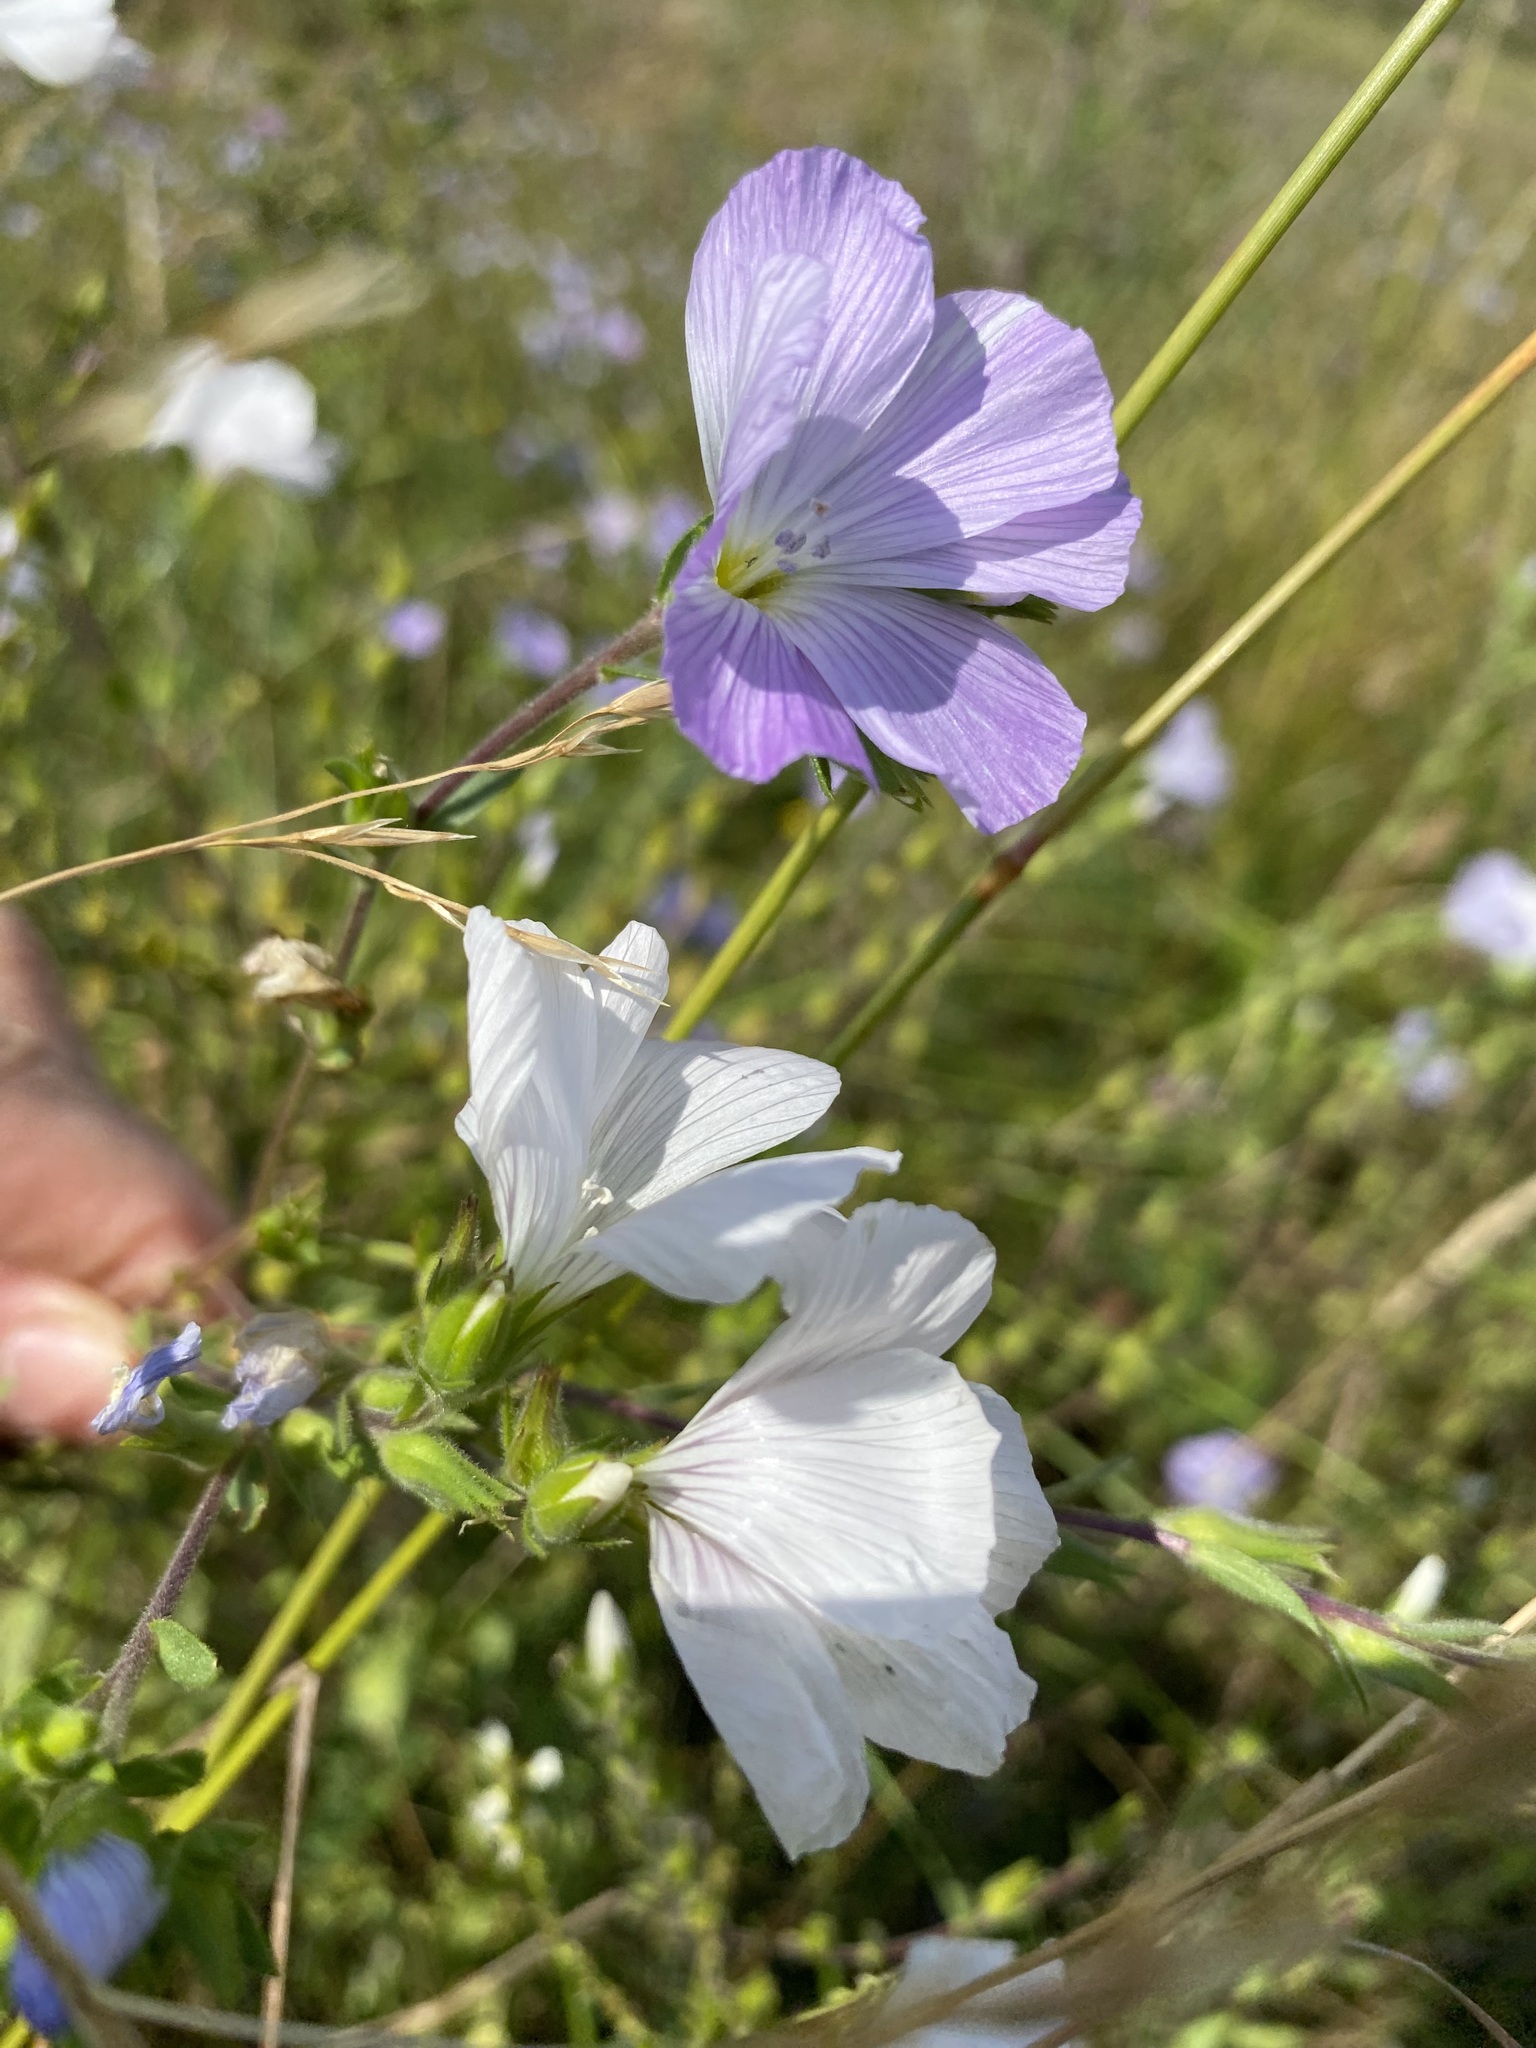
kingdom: Plantae
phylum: Tracheophyta
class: Magnoliopsida
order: Malpighiales
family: Linaceae
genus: Linum
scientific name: Linum hirsutum
